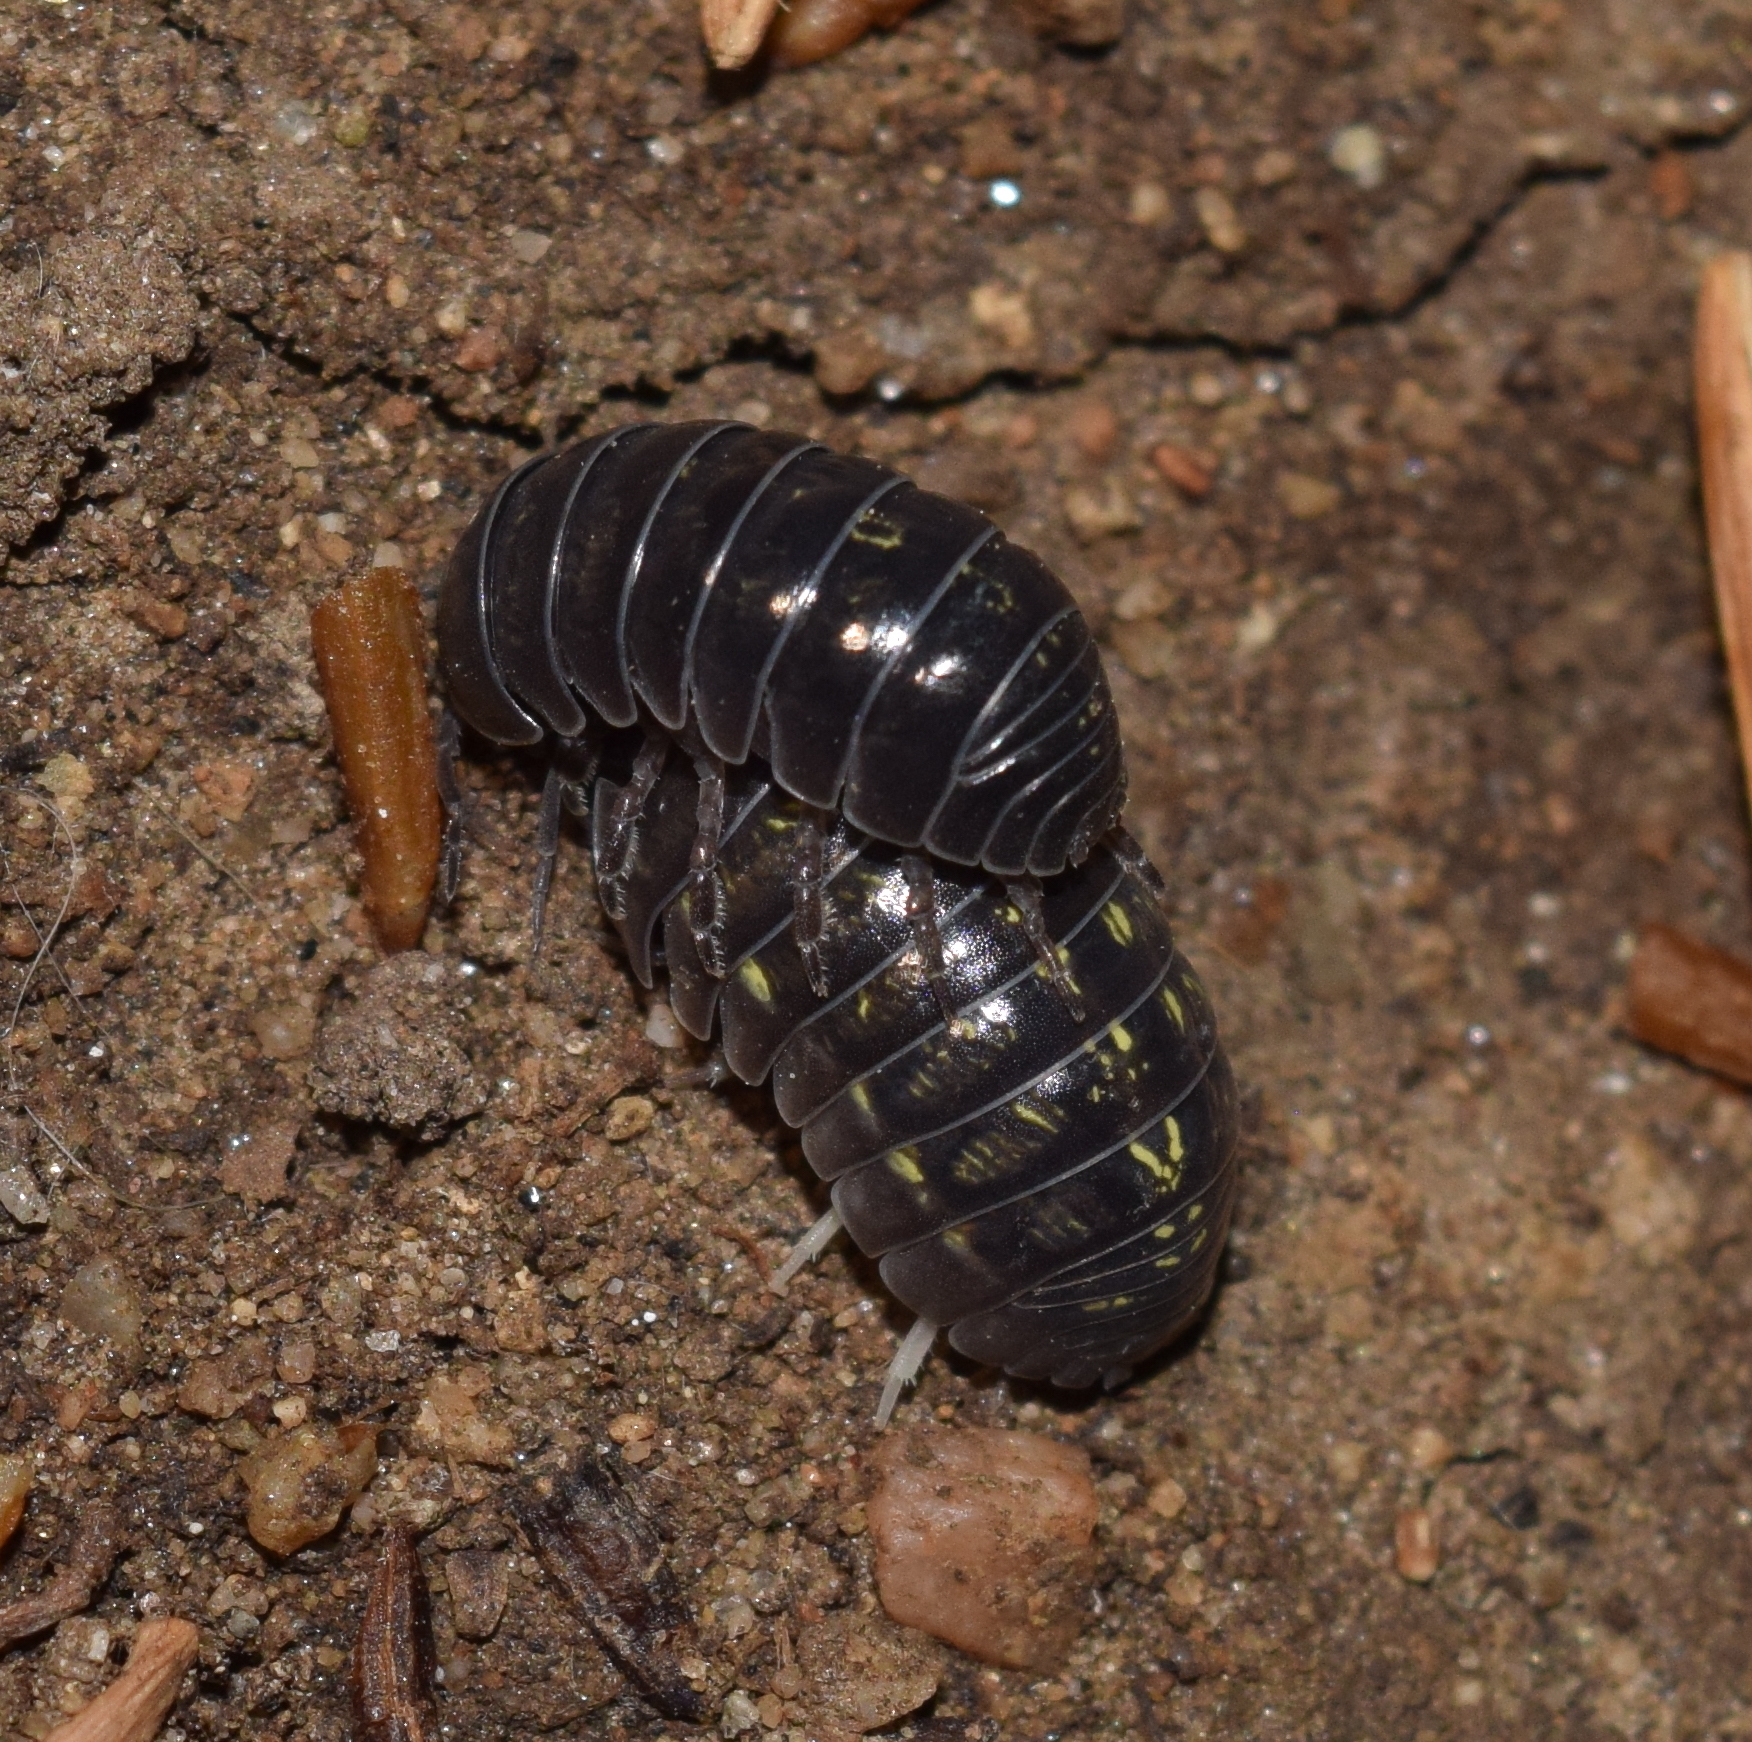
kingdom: Animalia
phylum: Arthropoda
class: Malacostraca
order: Isopoda
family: Armadillidiidae
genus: Armadillidium
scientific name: Armadillidium vulgare
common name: Common pill woodlouse
